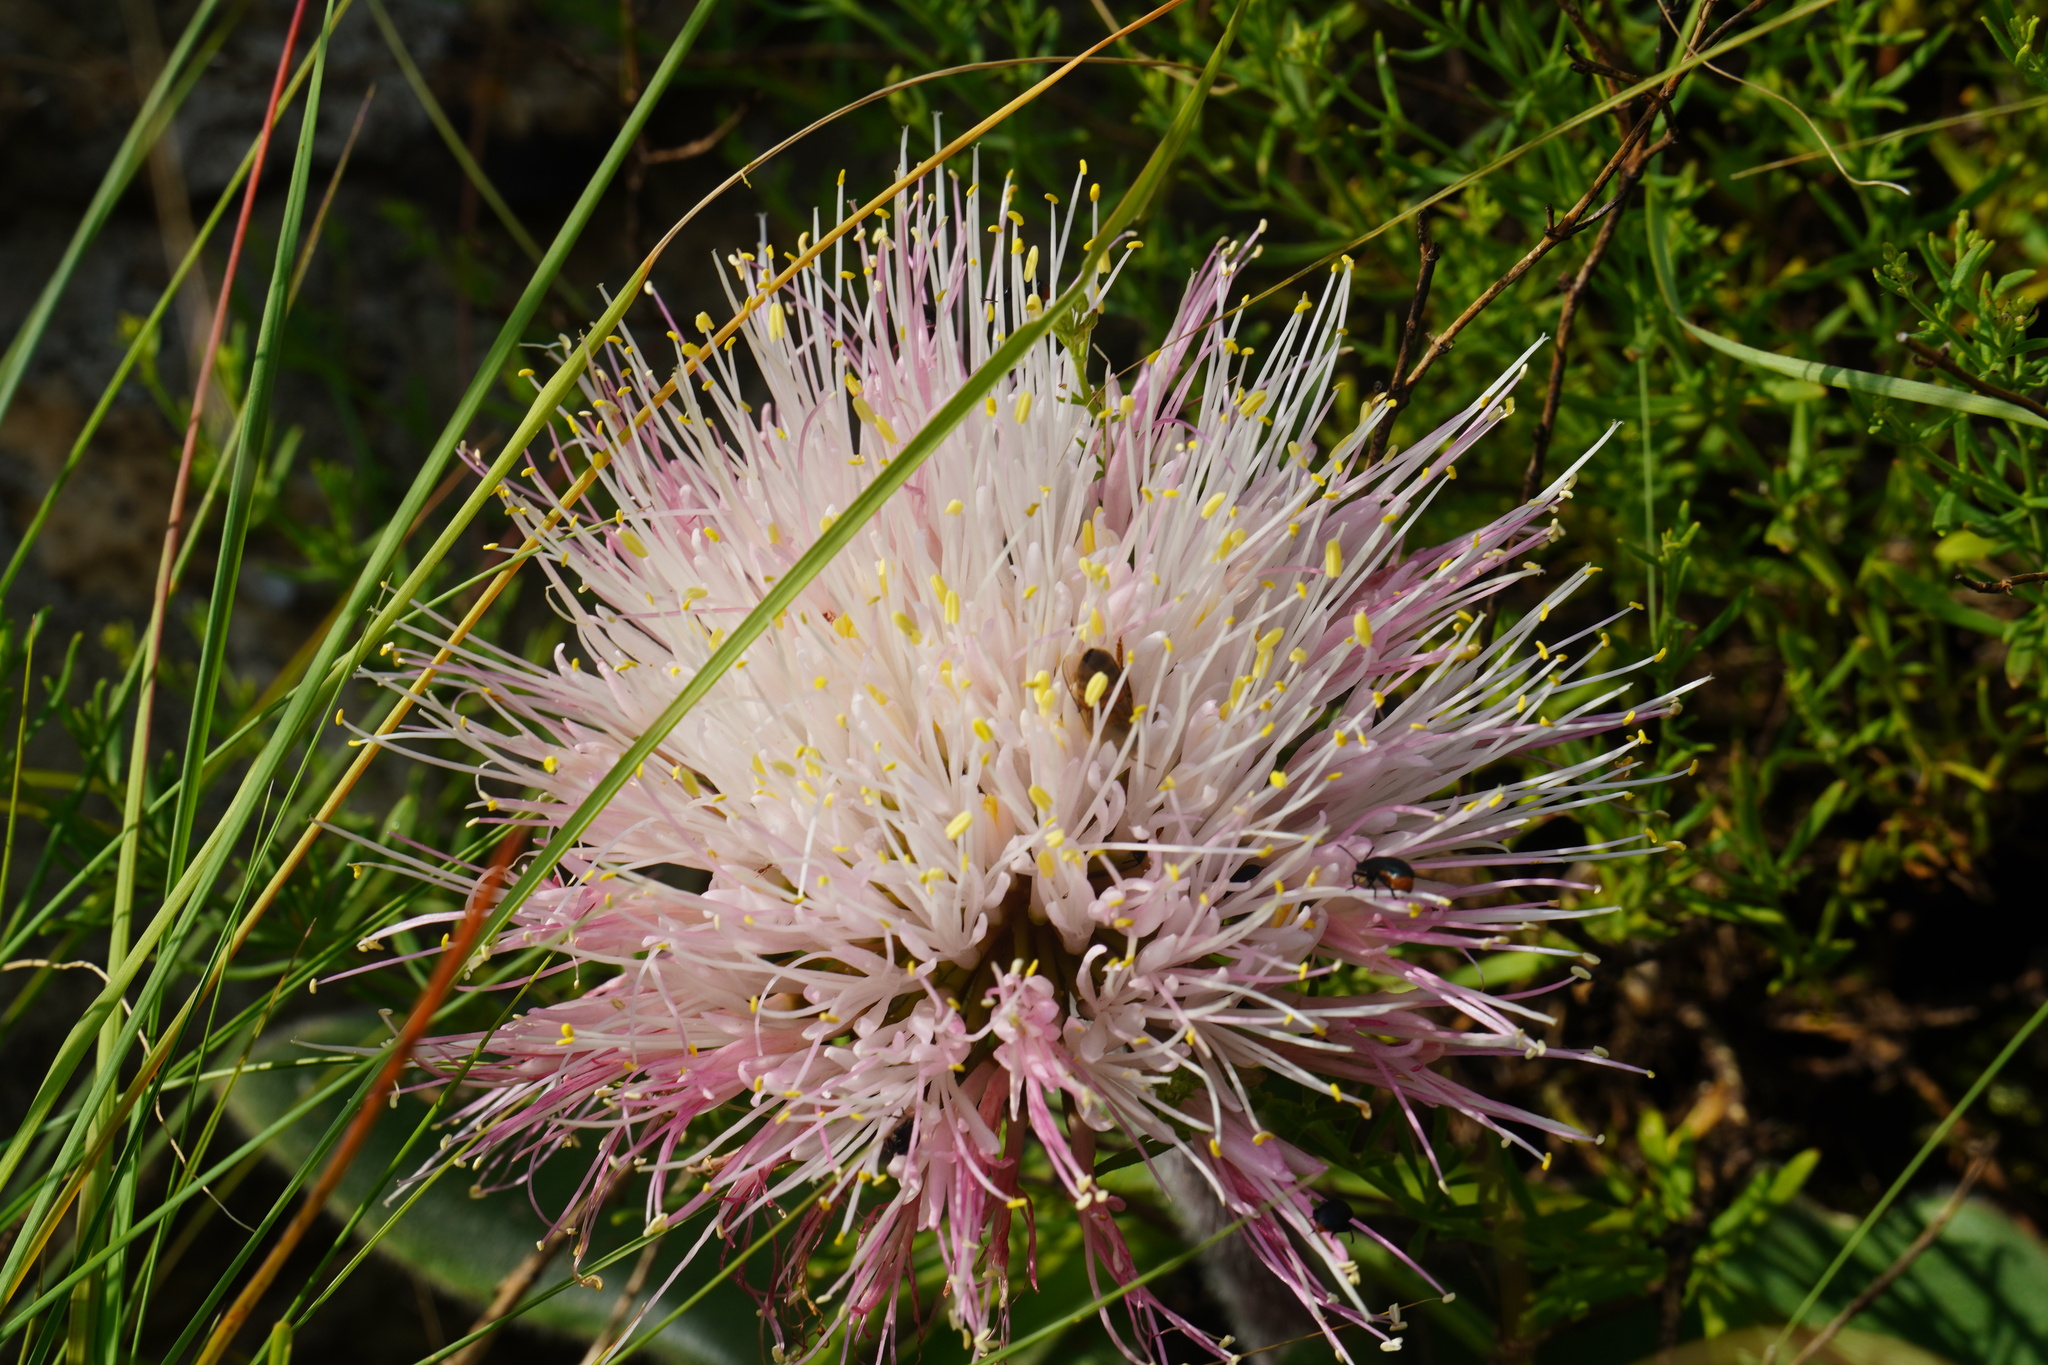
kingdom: Plantae
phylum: Tracheophyta
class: Liliopsida
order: Asparagales
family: Amaryllidaceae
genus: Haemanthus
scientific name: Haemanthus humilis
